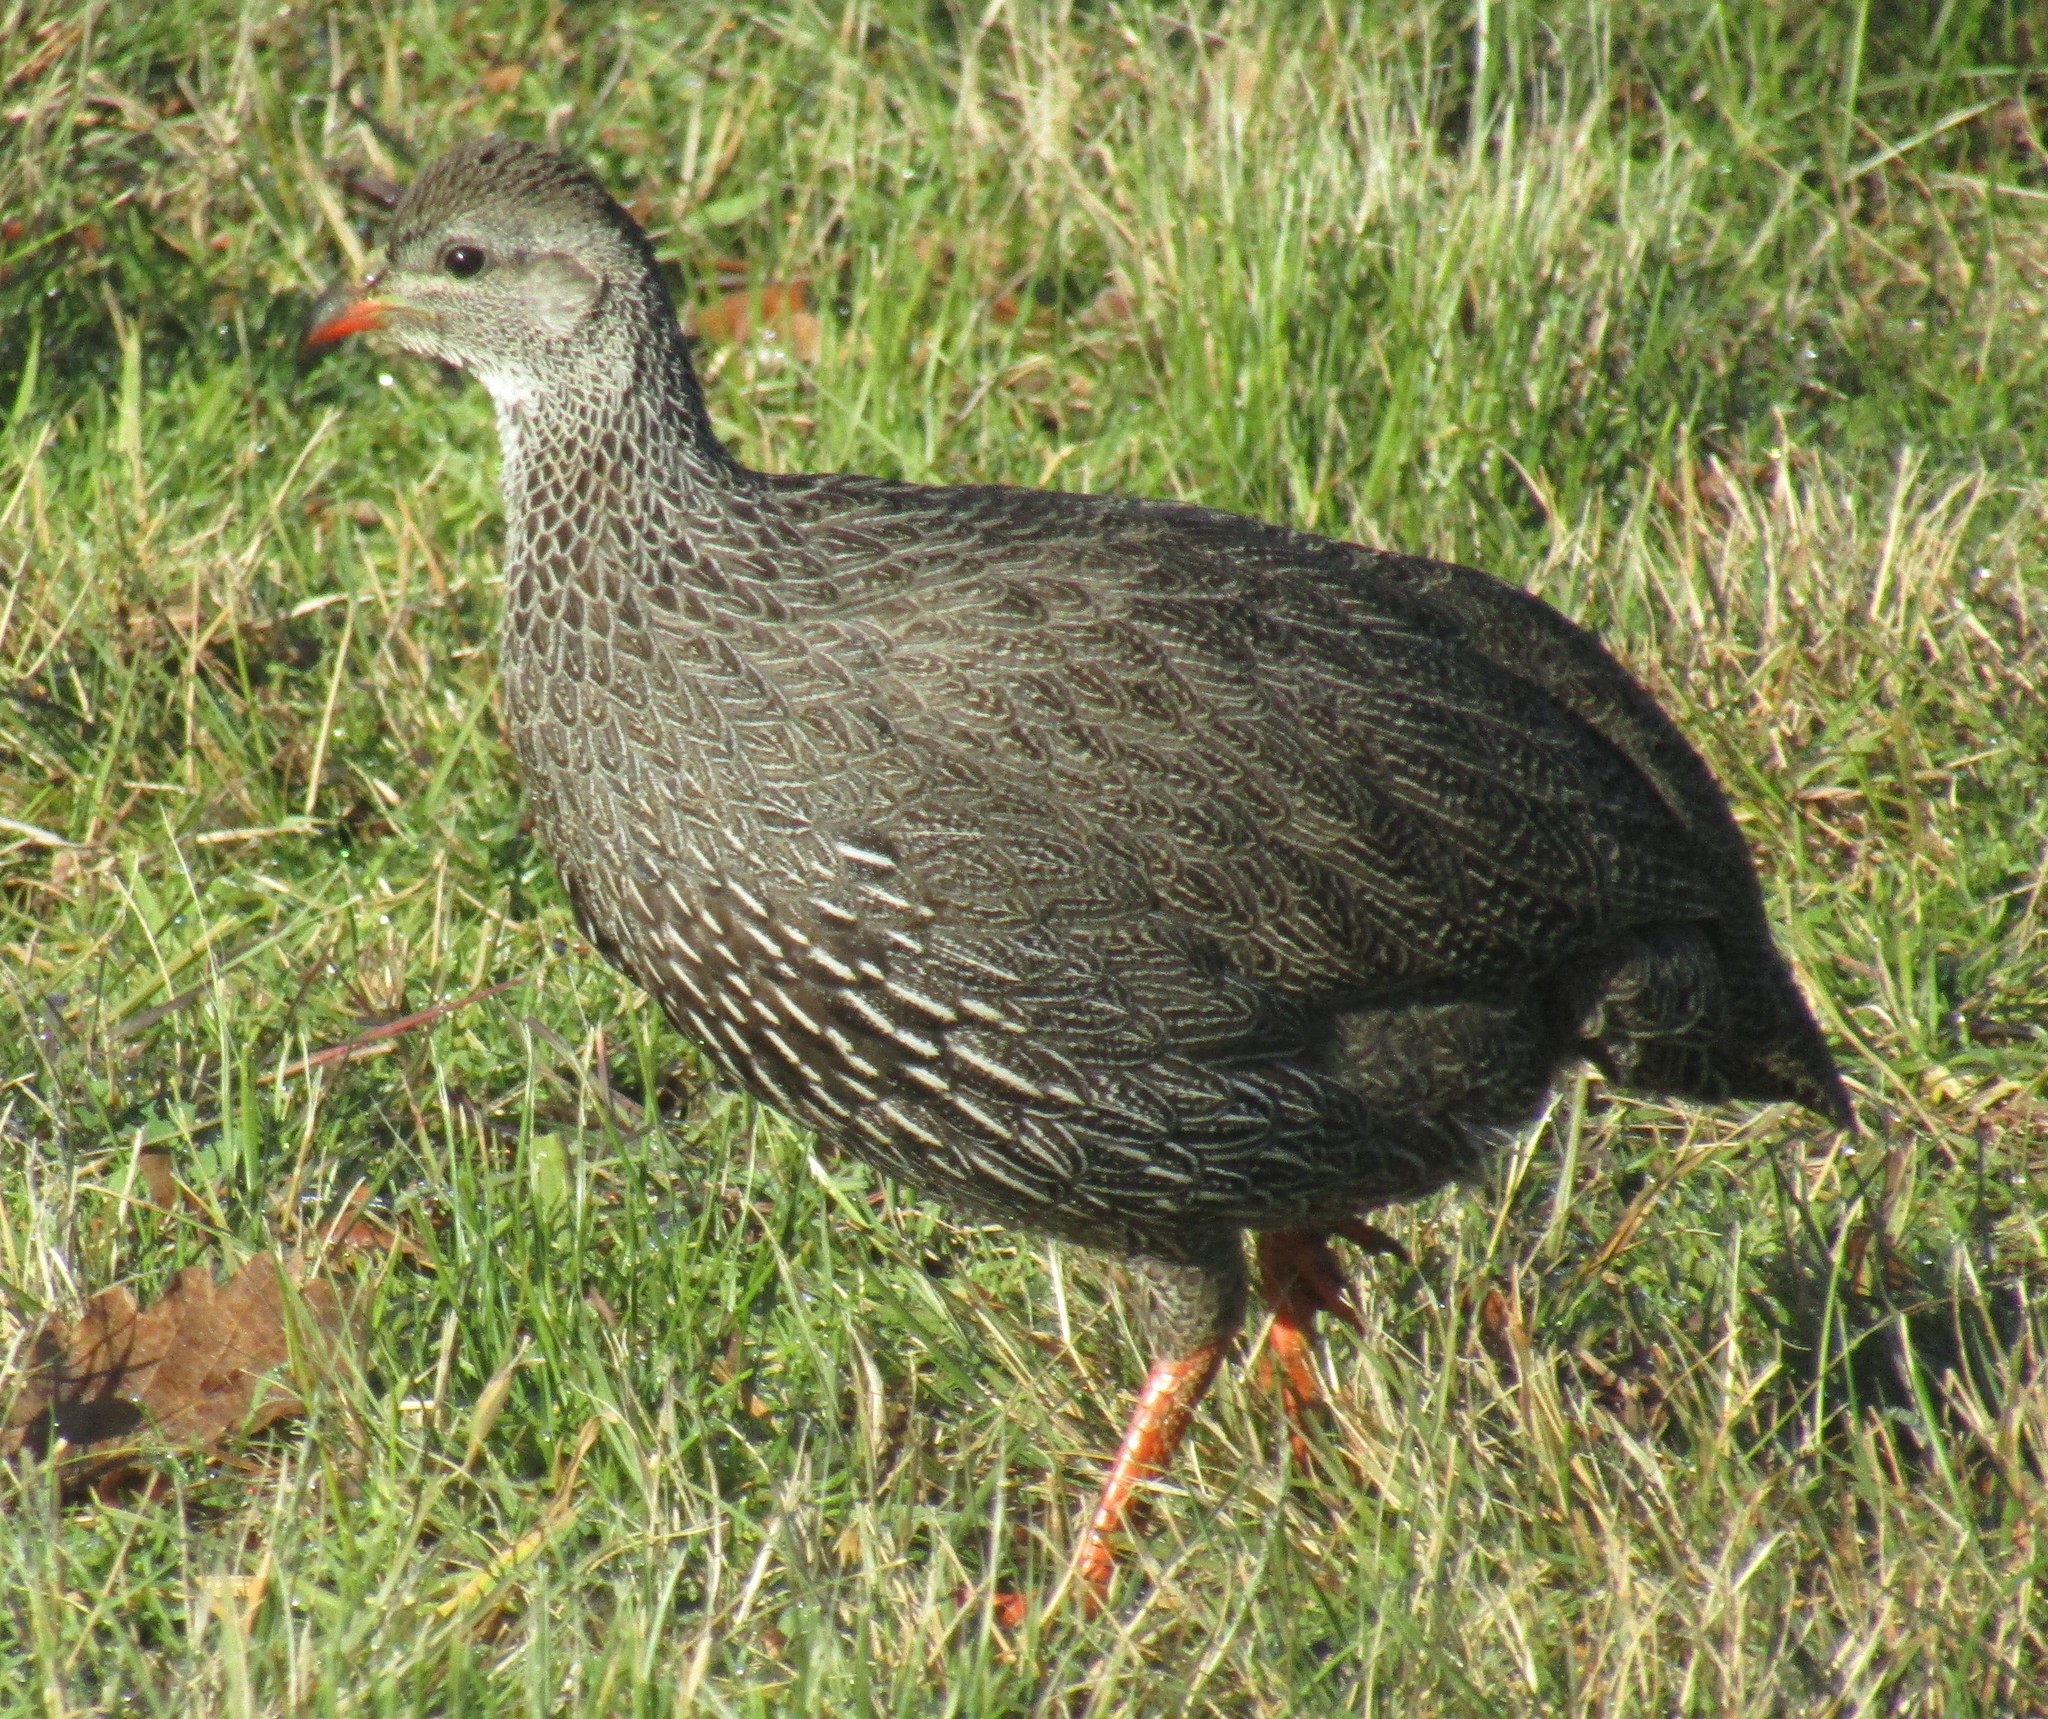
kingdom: Animalia
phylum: Chordata
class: Aves
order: Galliformes
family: Phasianidae
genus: Pternistis
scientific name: Pternistis capensis
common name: Cape spurfowl
